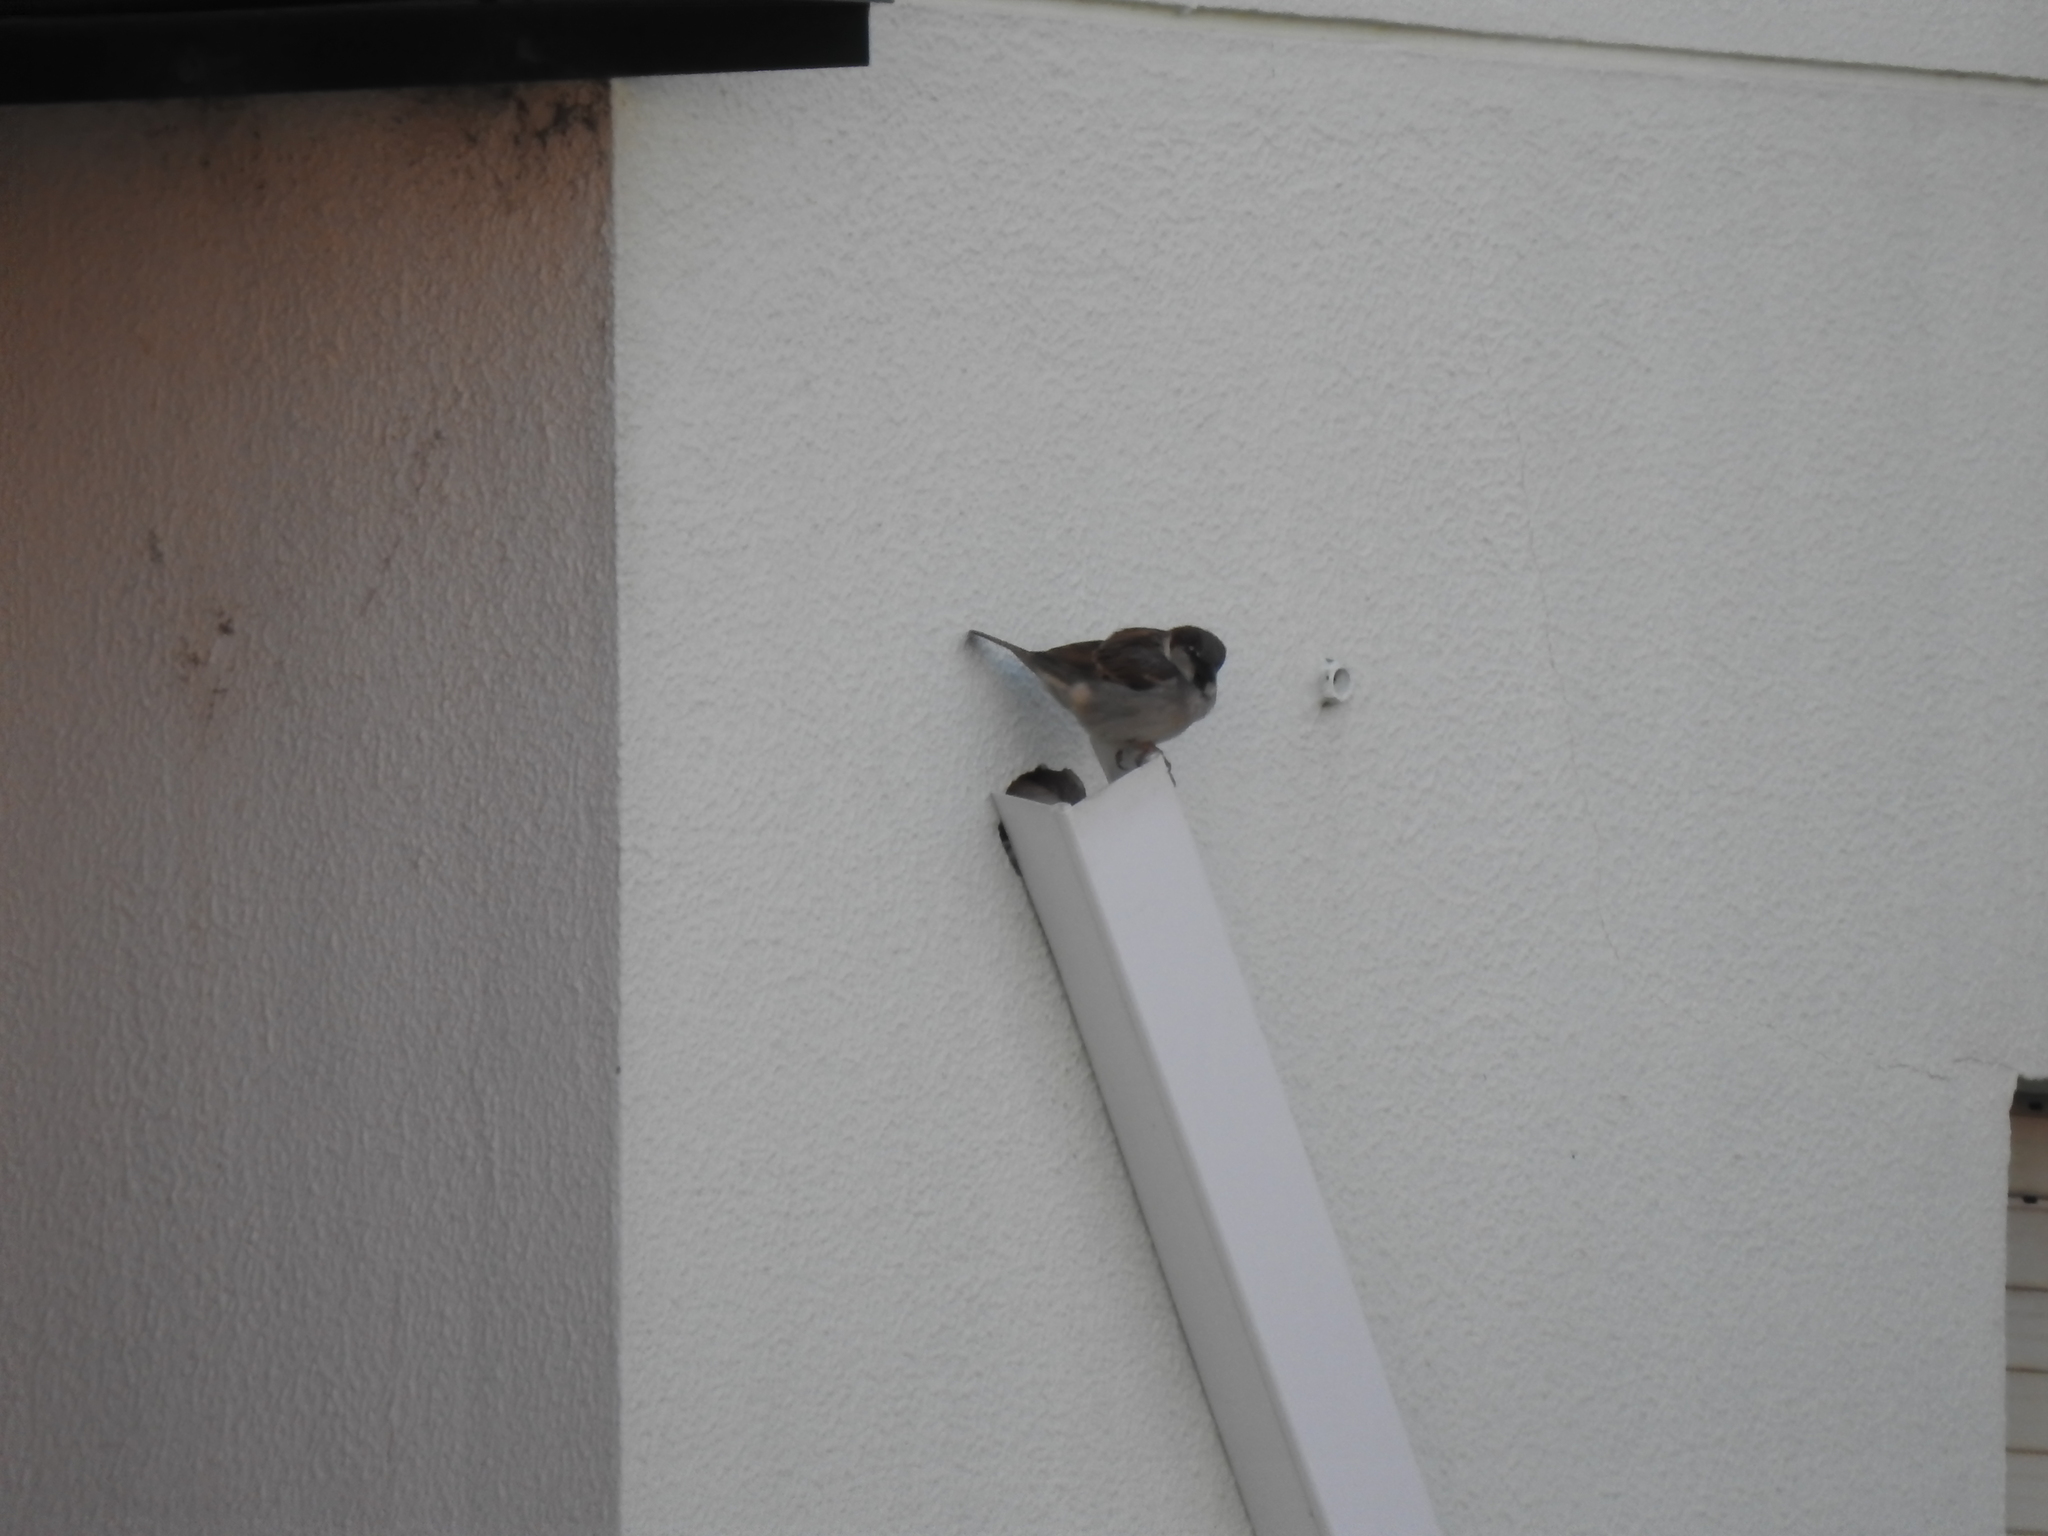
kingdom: Animalia
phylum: Chordata
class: Aves
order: Passeriformes
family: Passeridae
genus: Passer
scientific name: Passer domesticus
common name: House sparrow
